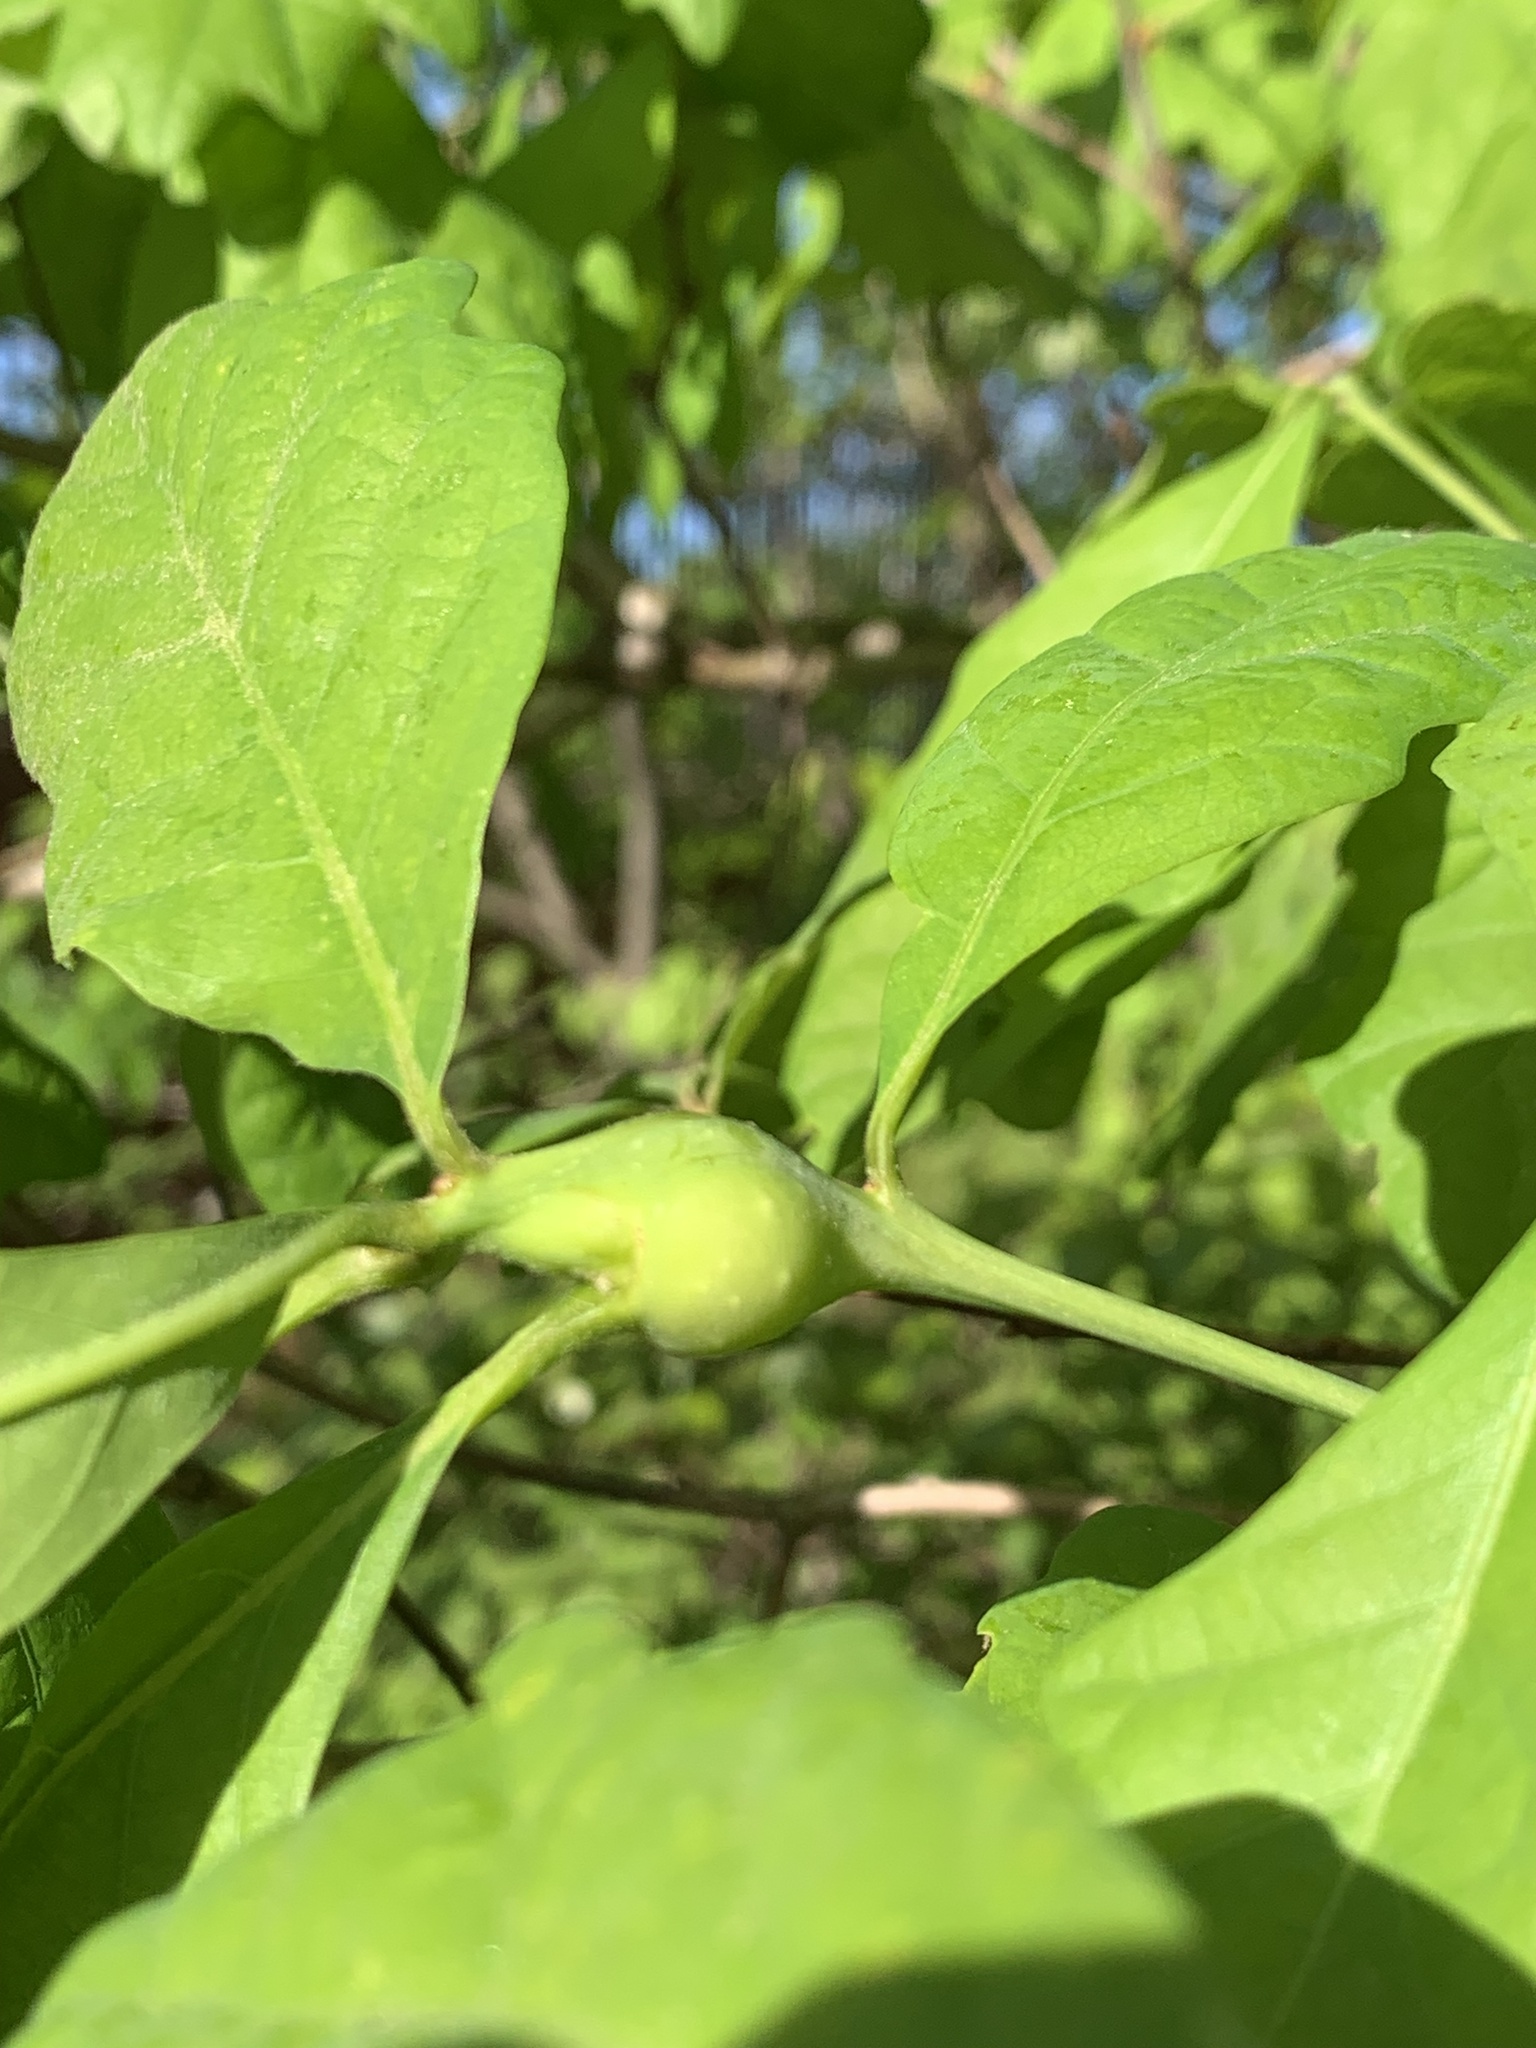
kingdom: Animalia
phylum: Arthropoda
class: Insecta
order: Hymenoptera
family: Cynipidae
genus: Callirhytis
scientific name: Callirhytis clavula
